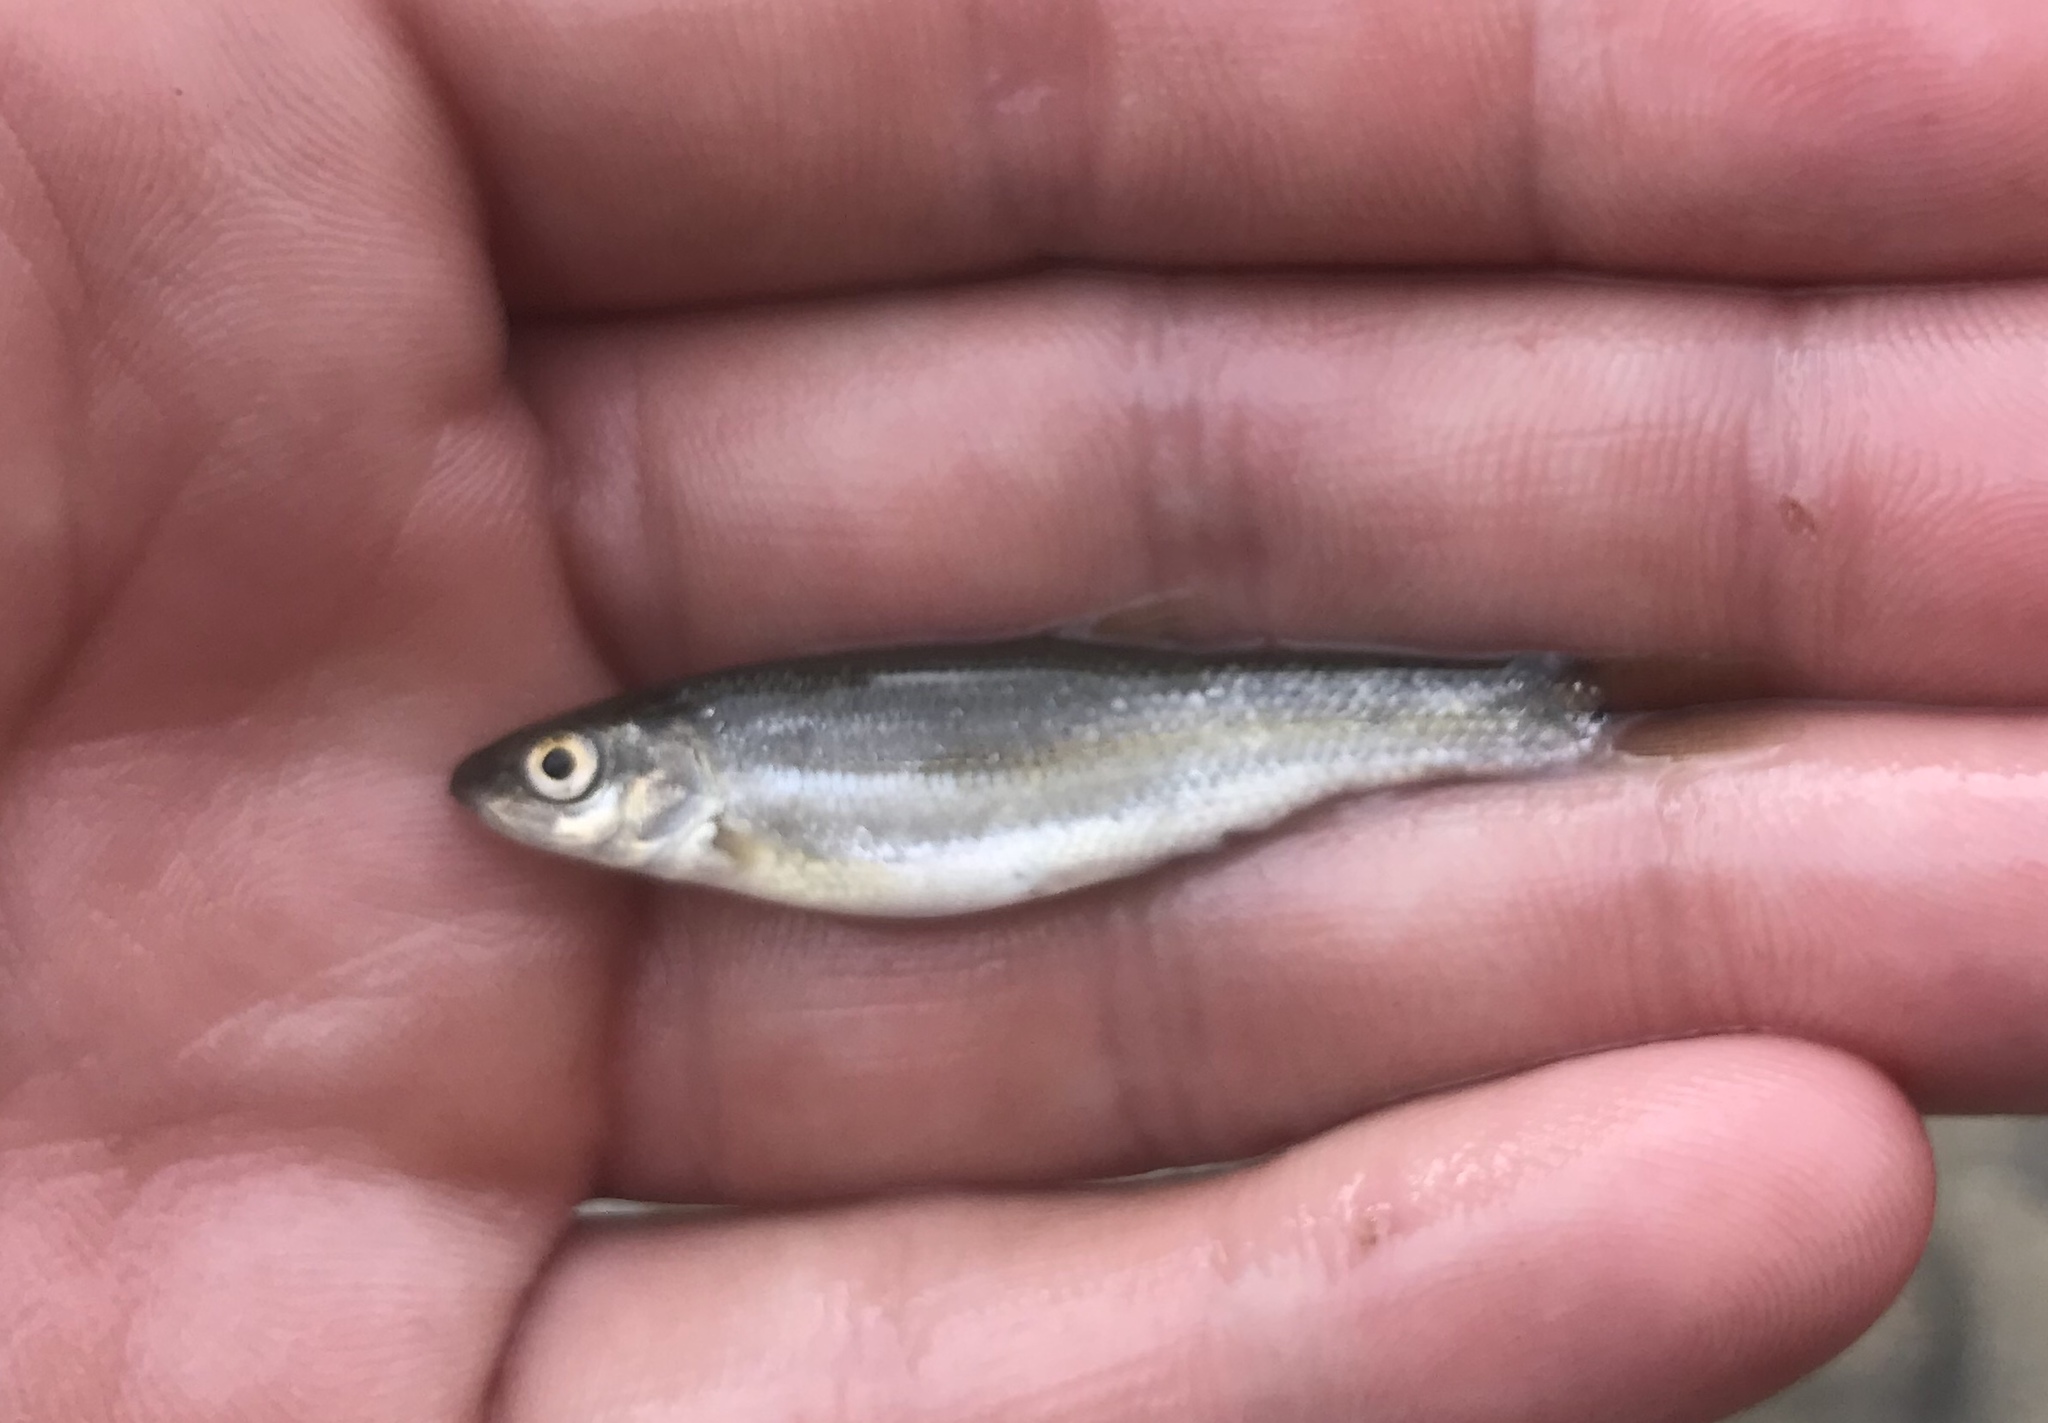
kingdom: Animalia
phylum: Chordata
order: Cypriniformes
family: Cyprinidae
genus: Campostoma
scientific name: Campostoma anomalum
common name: Central stoneroller
